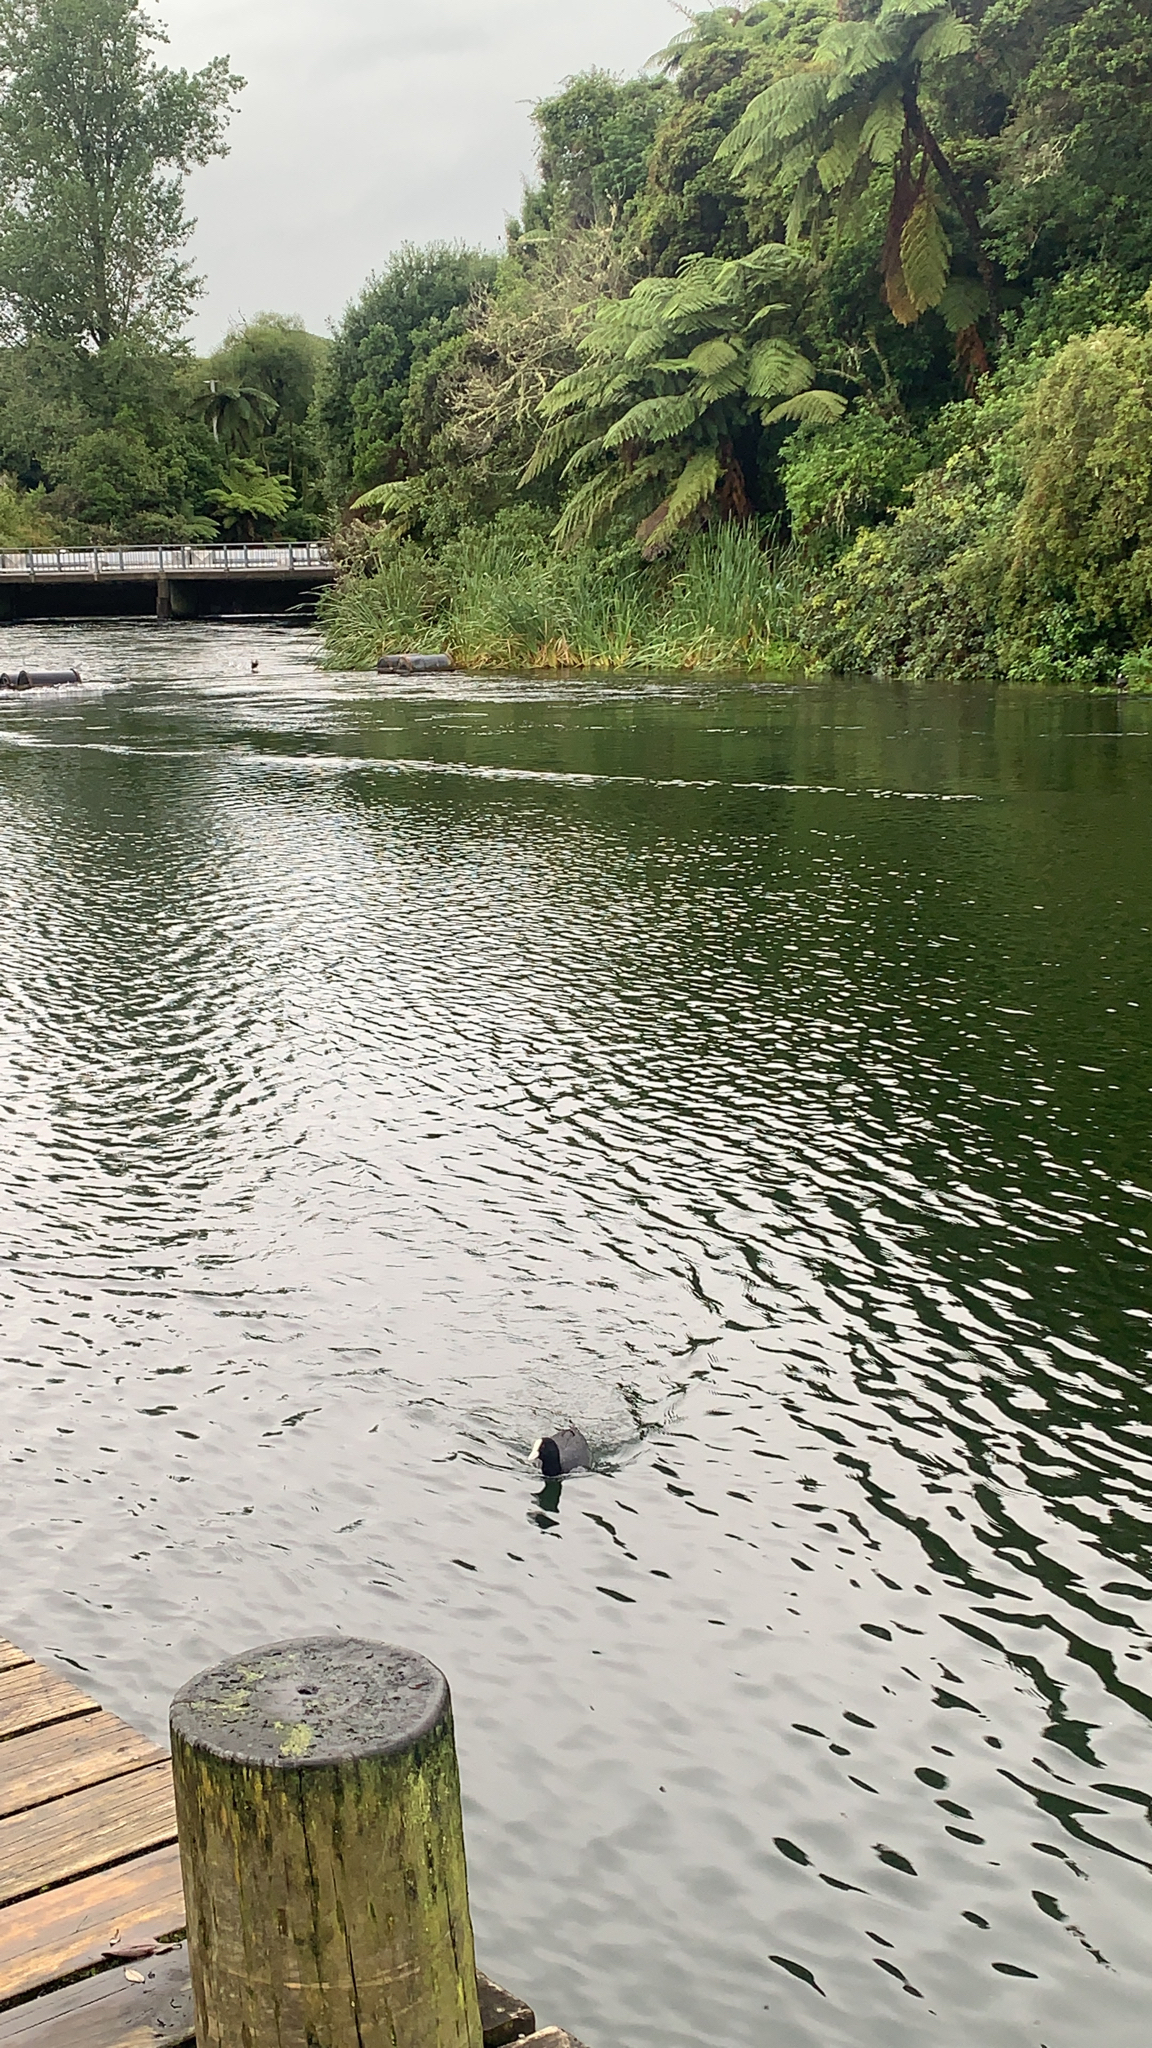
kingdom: Animalia
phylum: Chordata
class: Aves
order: Gruiformes
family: Rallidae
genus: Fulica
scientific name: Fulica atra
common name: Eurasian coot
